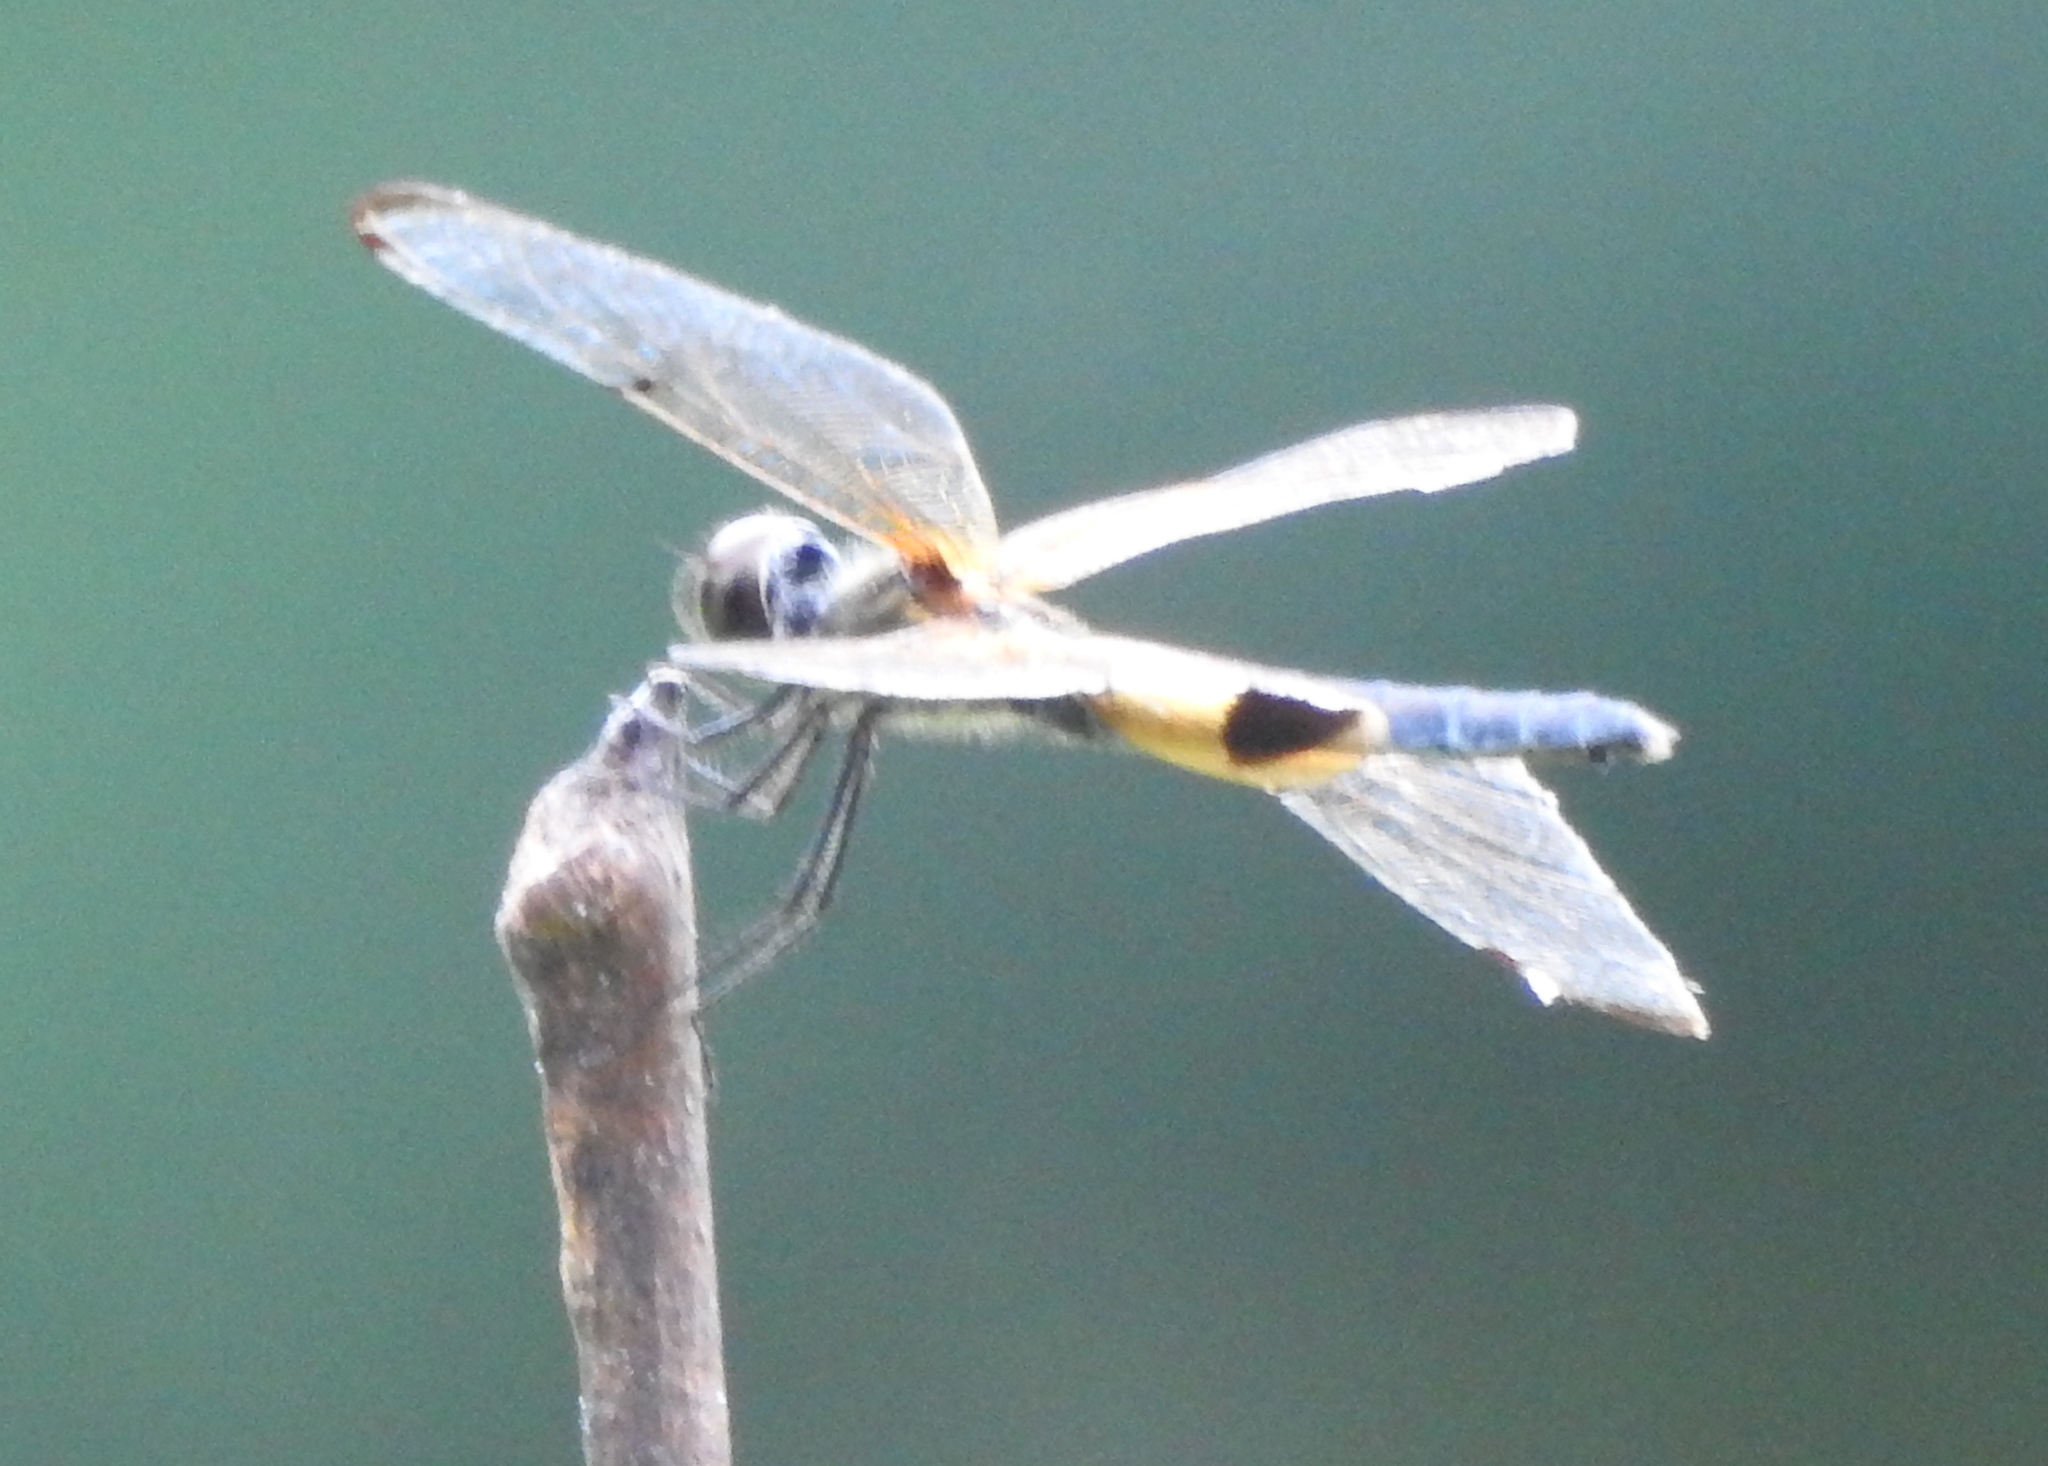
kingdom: Animalia
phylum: Arthropoda
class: Insecta
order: Odonata
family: Libellulidae
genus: Rhyothemis
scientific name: Rhyothemis phyllis
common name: Yellow-barred flutterer
